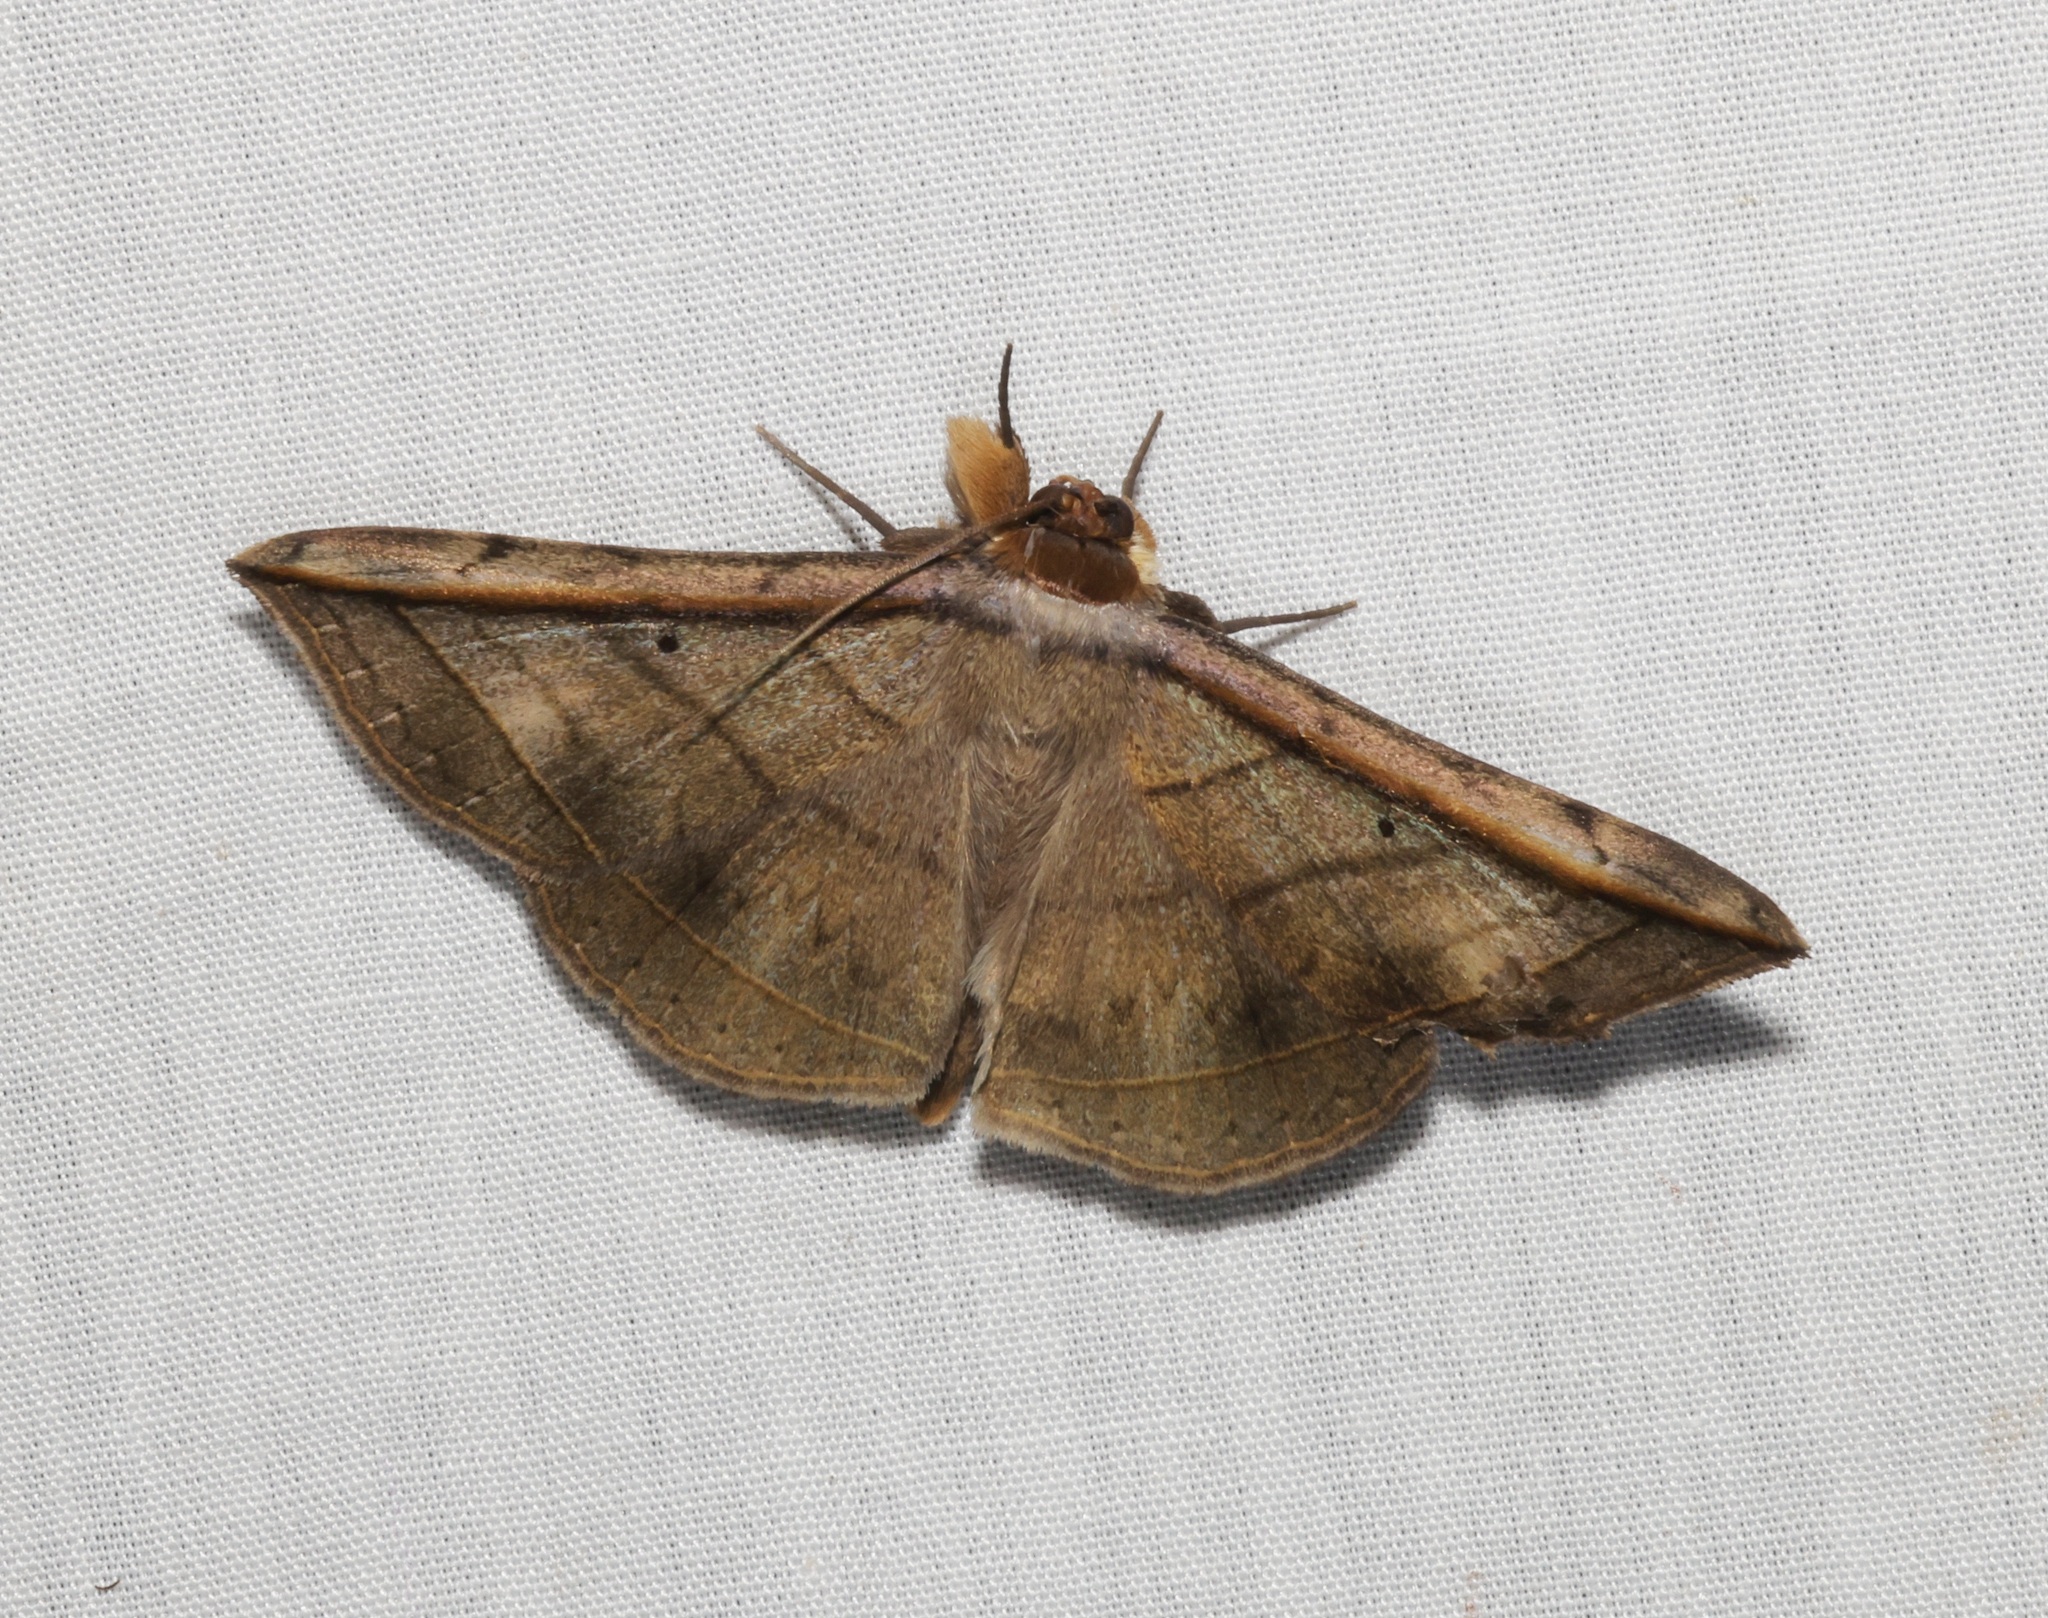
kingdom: Animalia
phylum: Arthropoda
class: Insecta
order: Lepidoptera
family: Erebidae
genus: Entomogramma
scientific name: Entomogramma fautrix
